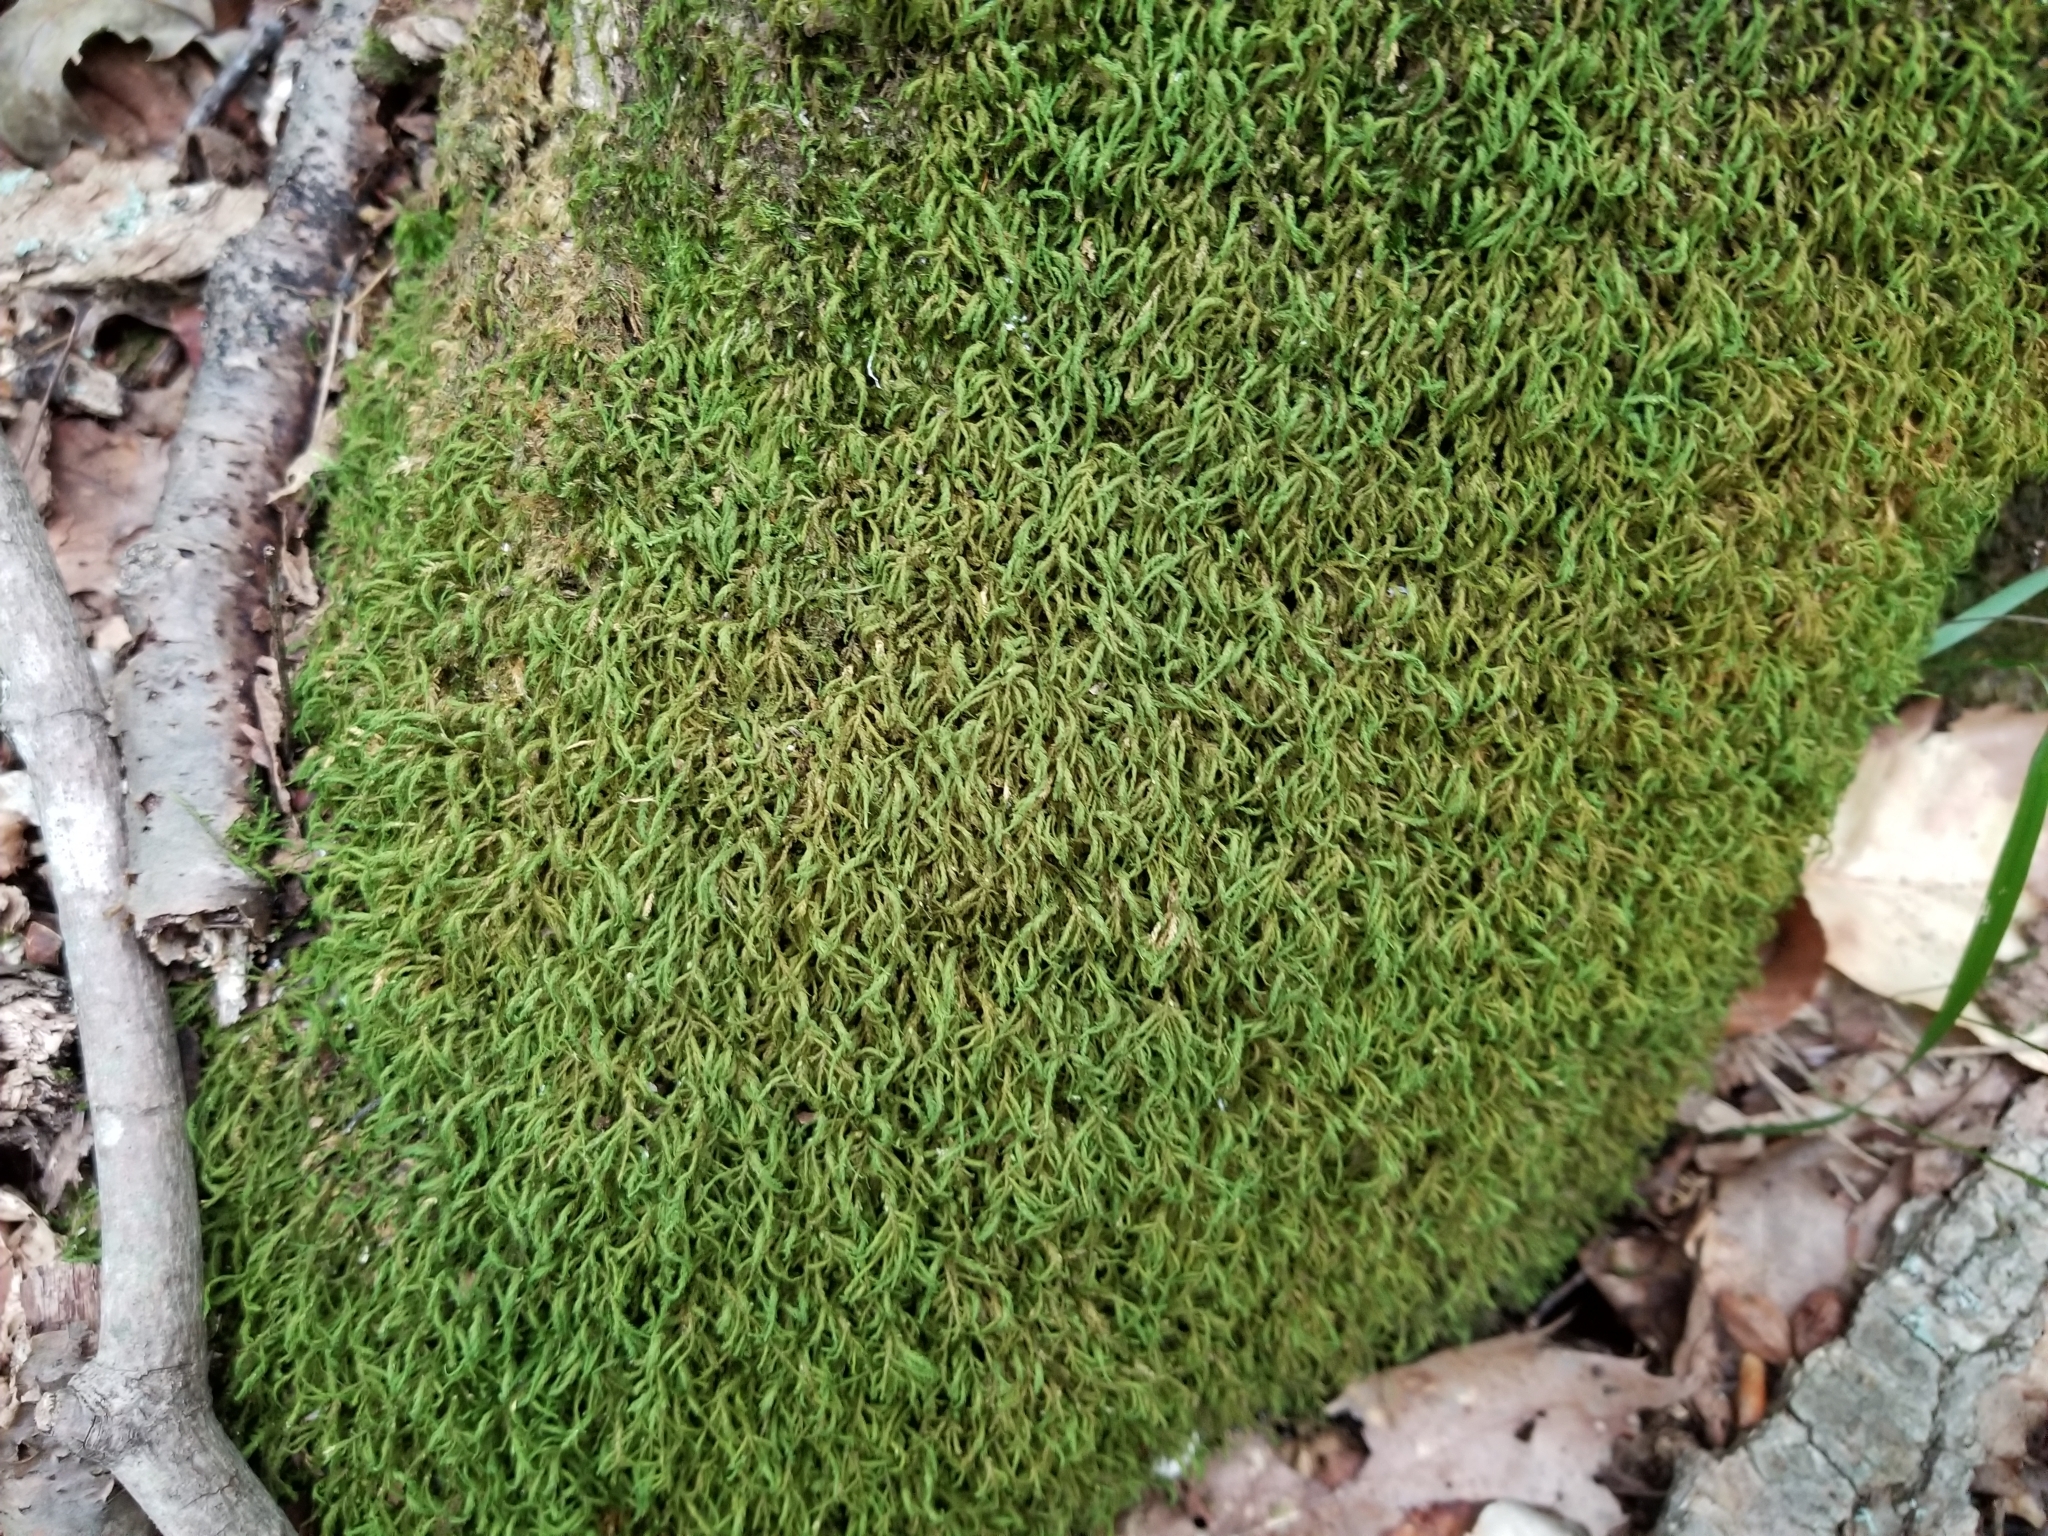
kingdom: Plantae
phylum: Bryophyta
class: Bryopsida
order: Hypnales
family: Neckeraceae
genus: Pseudanomodon
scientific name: Pseudanomodon attenuatus
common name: Tree-skirt moss
